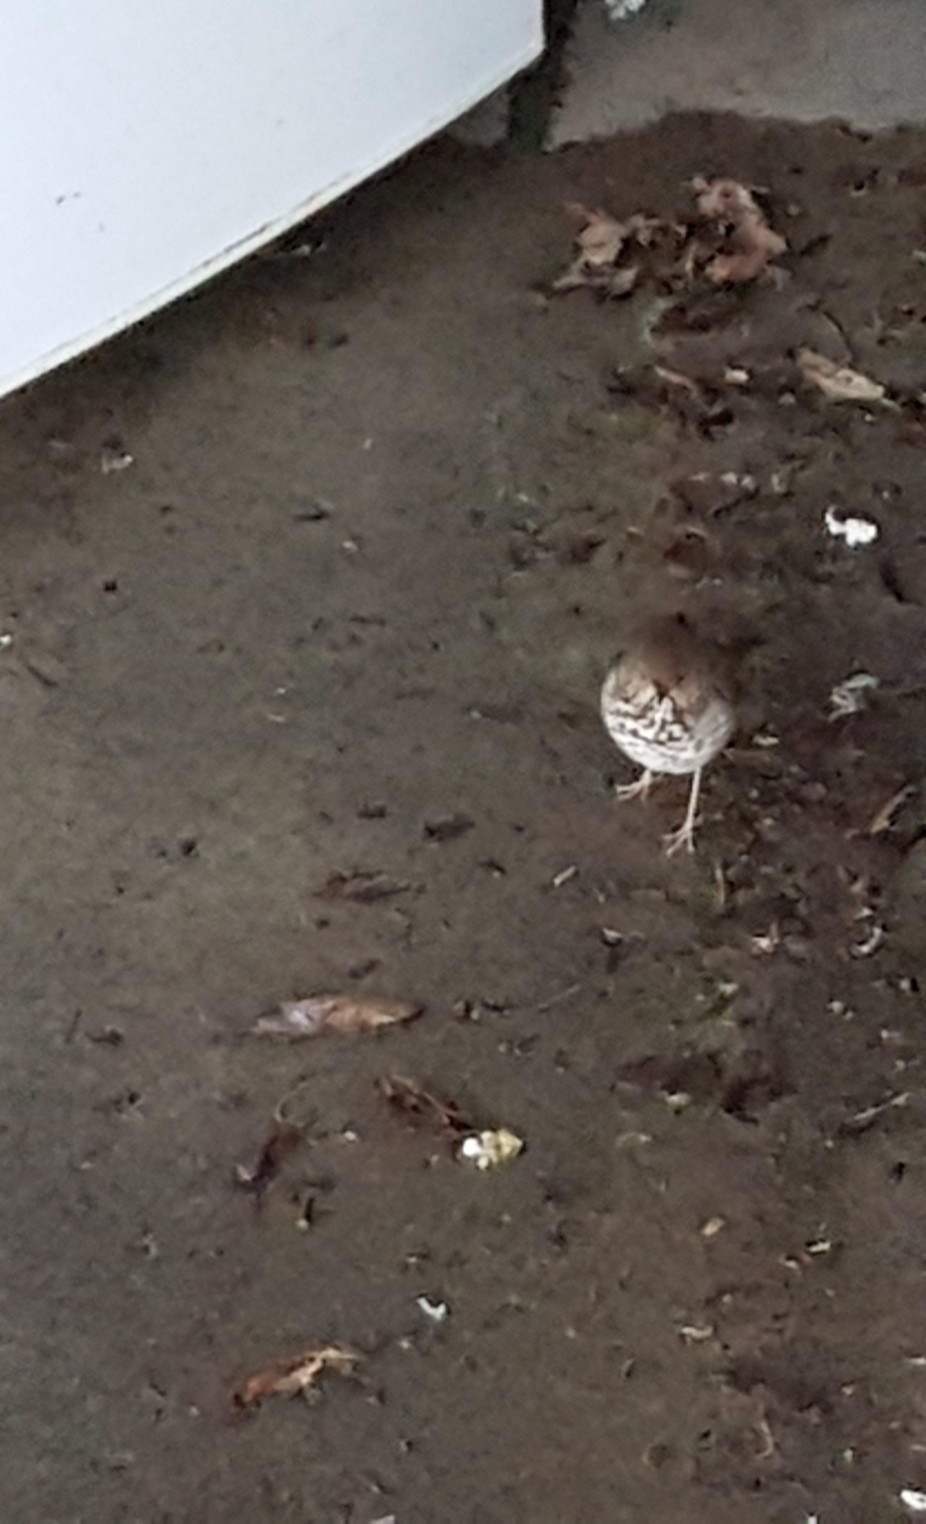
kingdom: Animalia
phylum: Chordata
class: Aves
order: Passeriformes
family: Turdidae
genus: Catharus
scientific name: Catharus guttatus
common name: Hermit thrush
